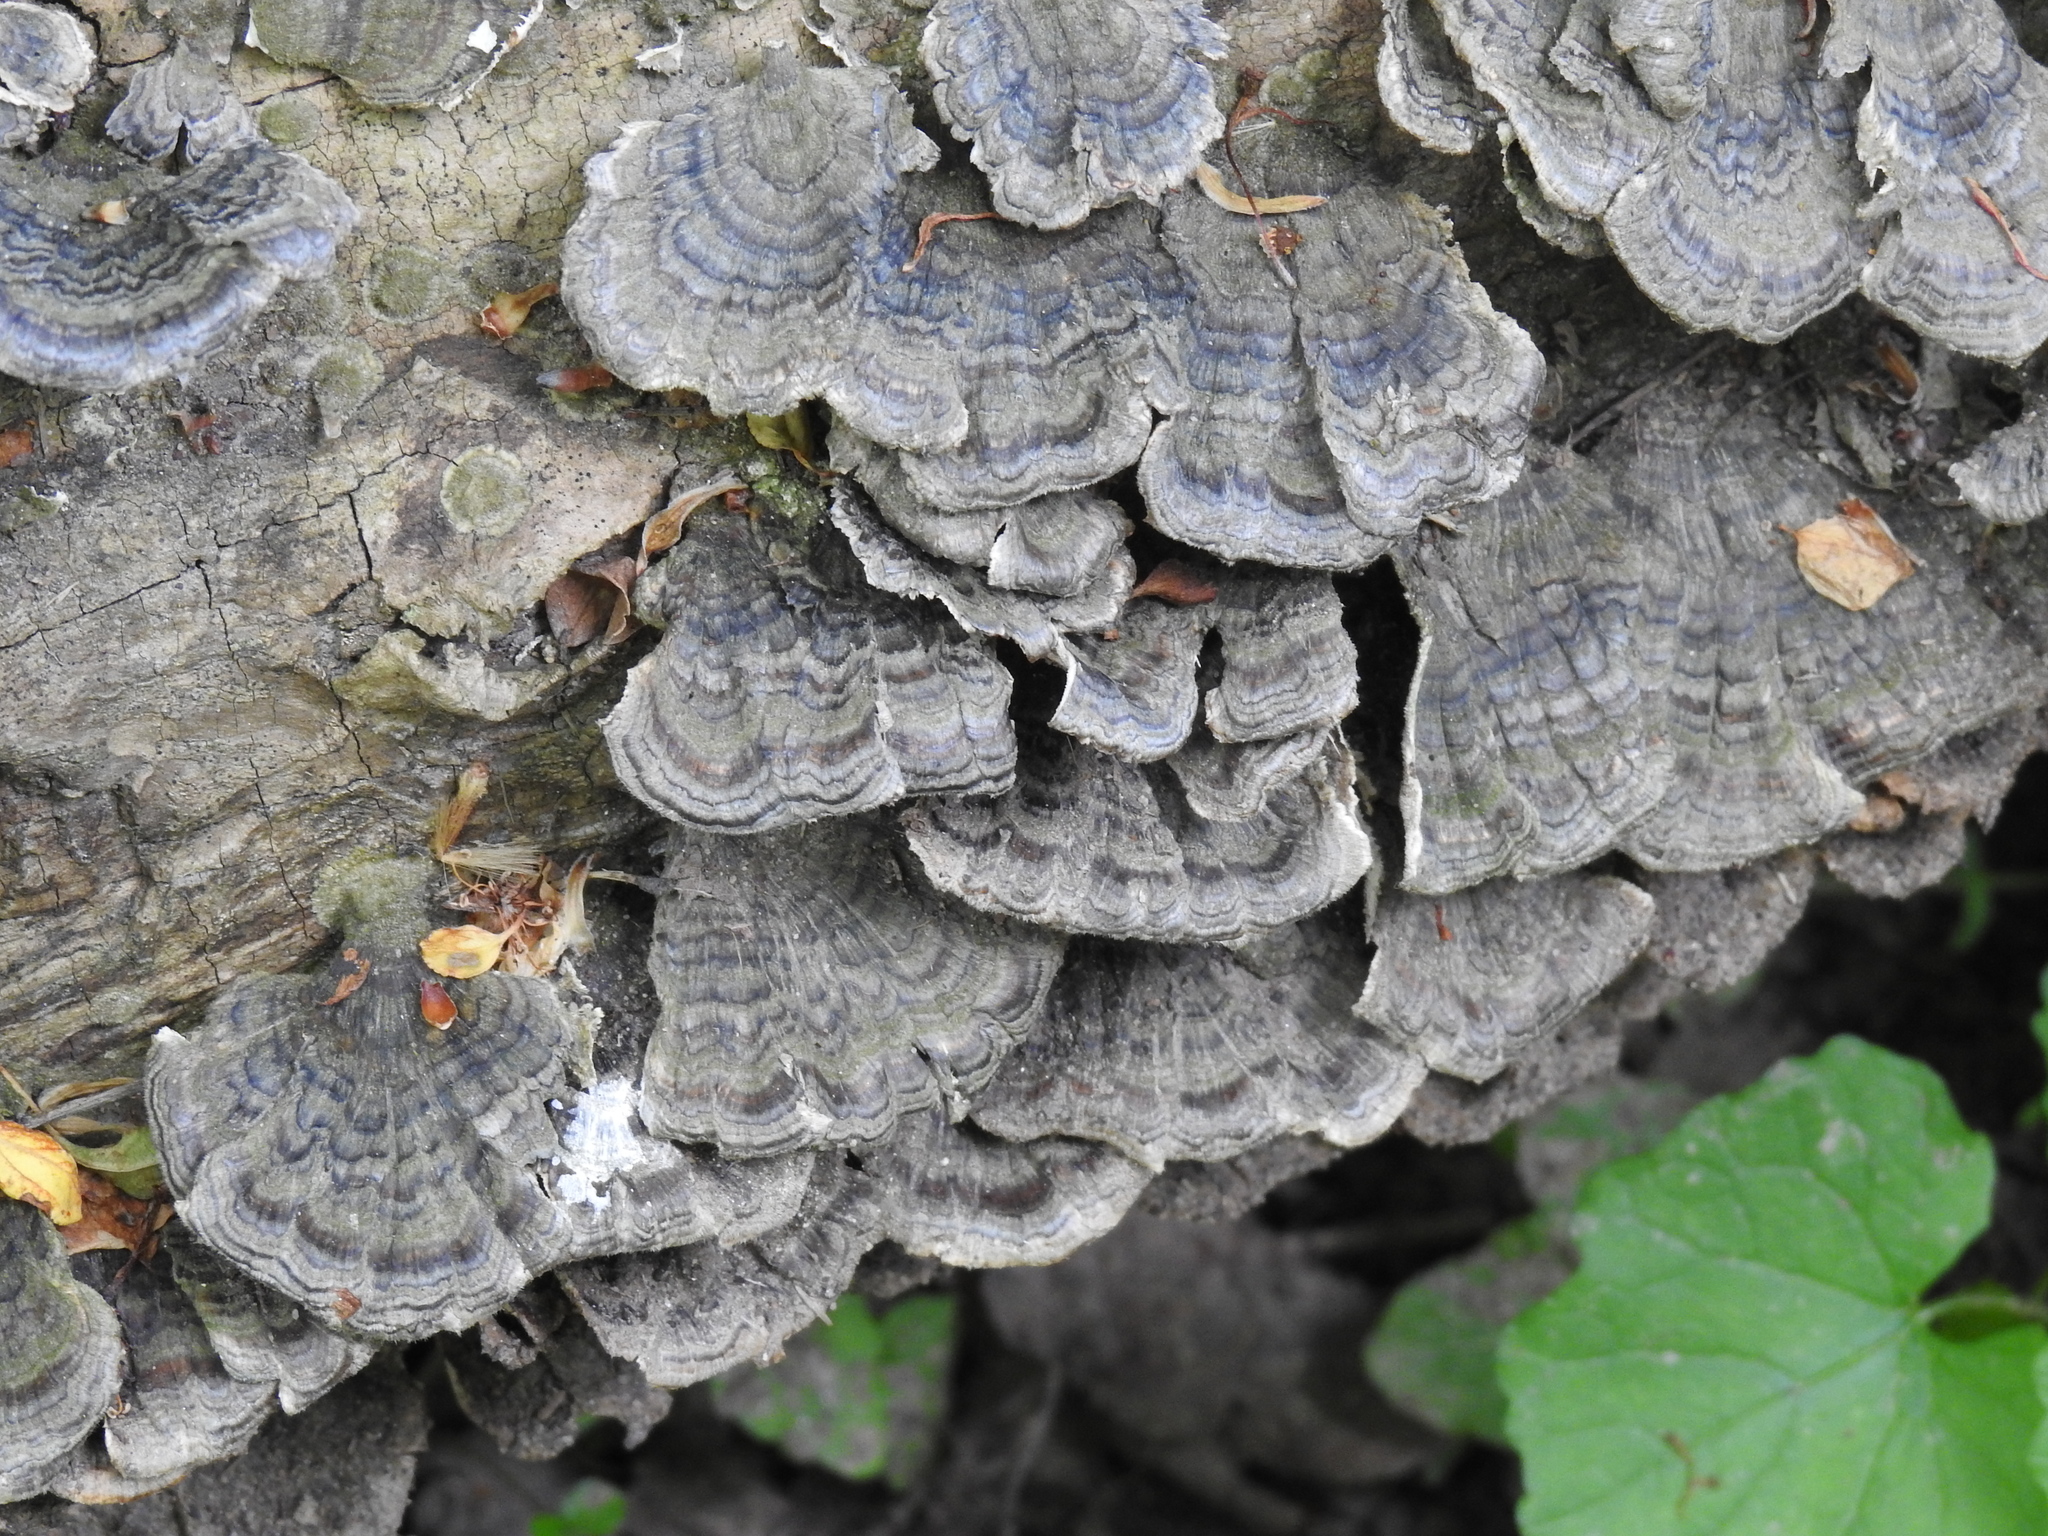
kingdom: Fungi
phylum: Basidiomycota
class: Agaricomycetes
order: Polyporales
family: Polyporaceae
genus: Trametes
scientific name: Trametes versicolor
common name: Turkeytail
